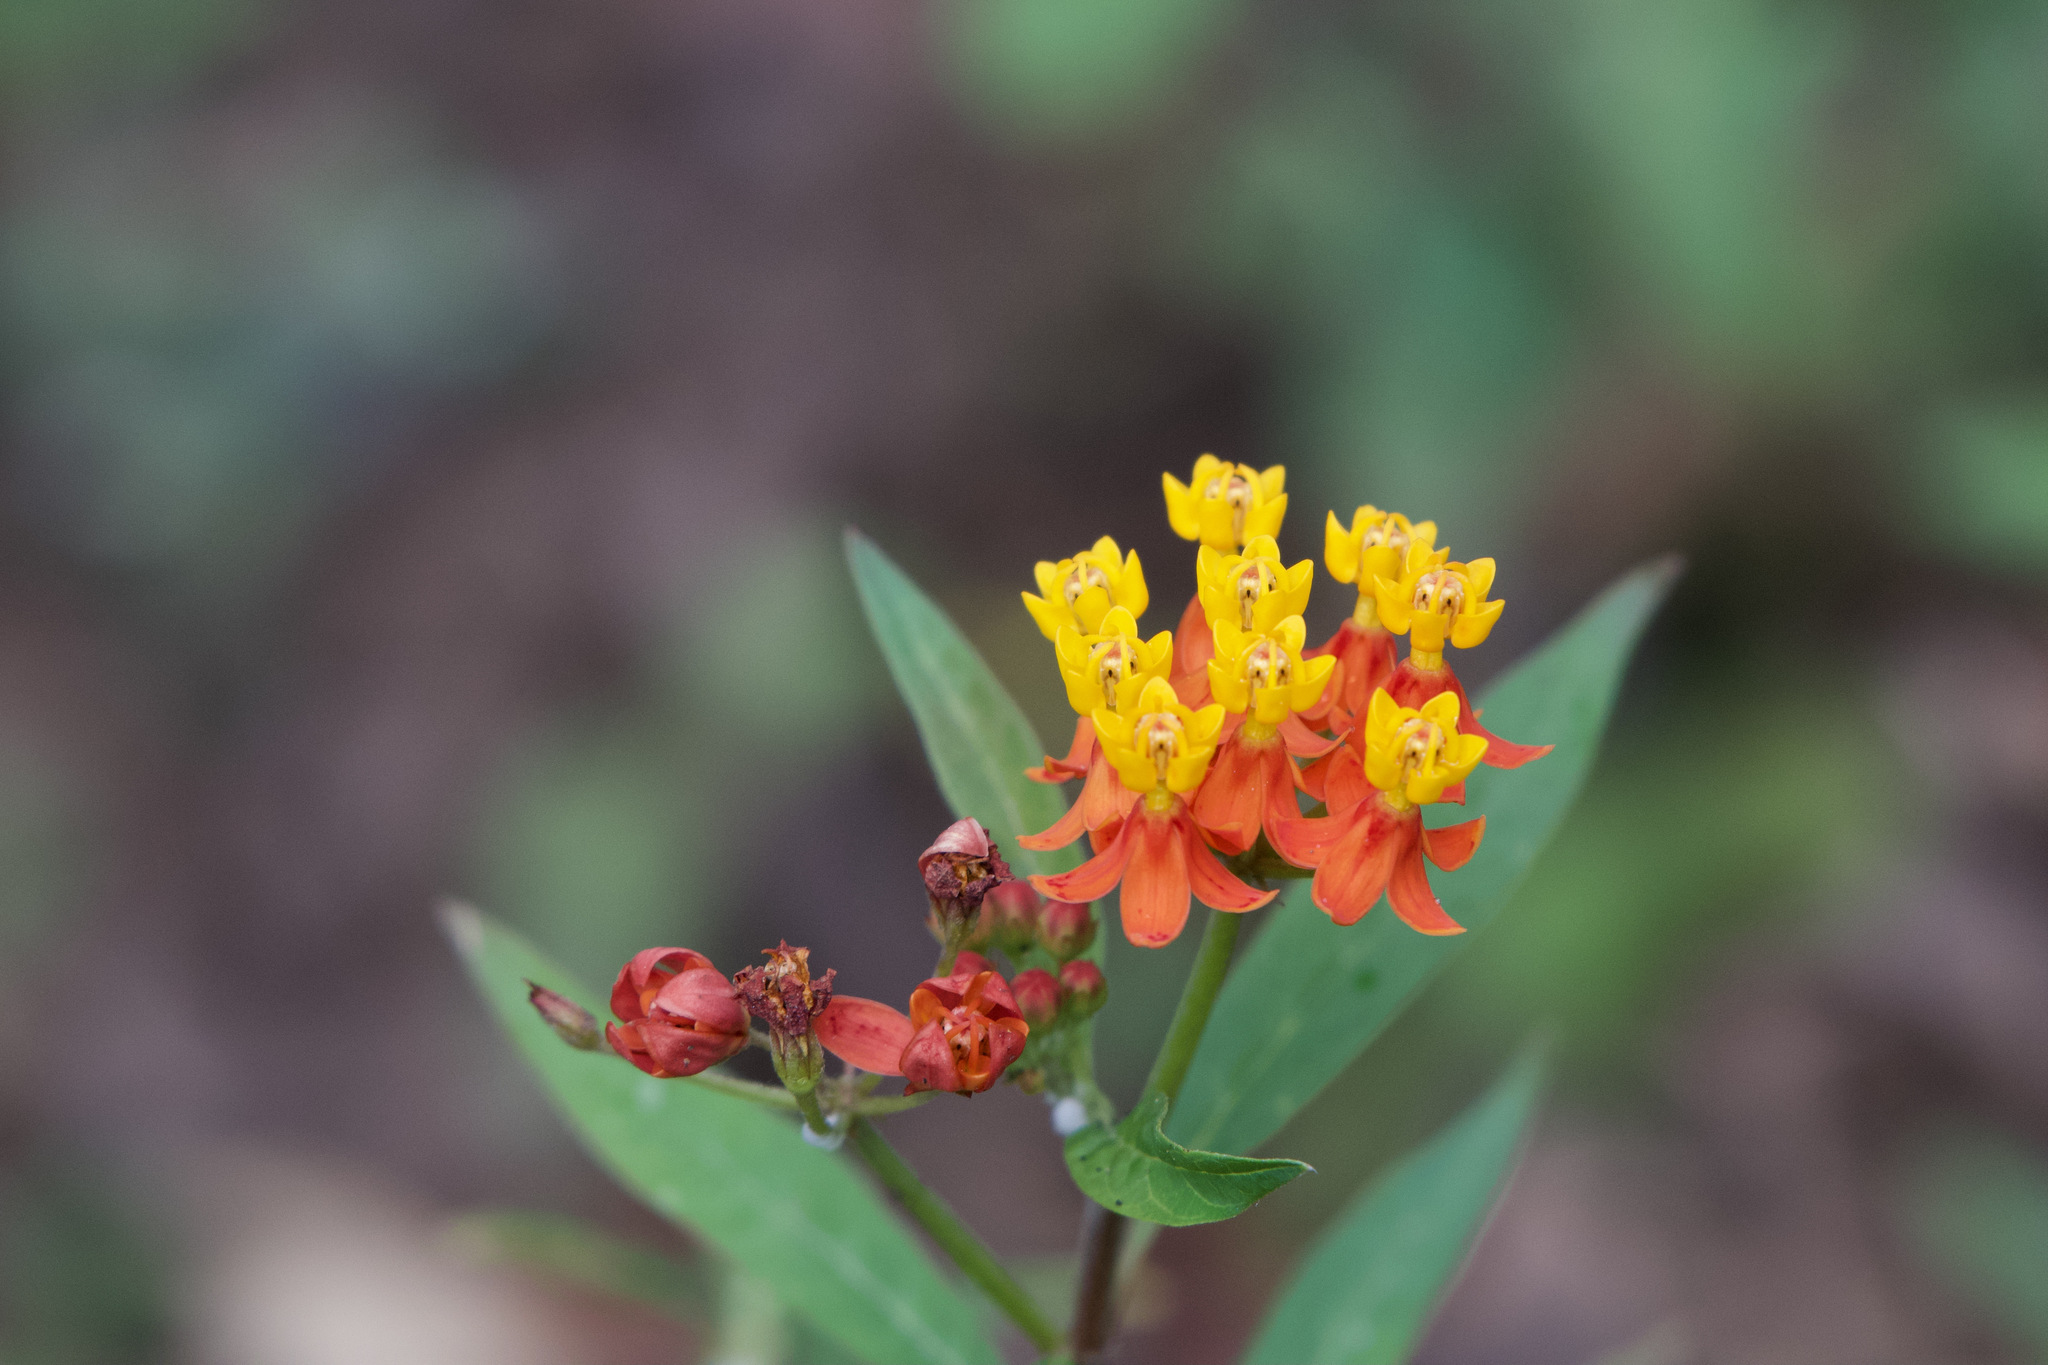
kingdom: Plantae
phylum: Tracheophyta
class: Magnoliopsida
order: Gentianales
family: Apocynaceae
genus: Asclepias
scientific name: Asclepias curassavica
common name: Bloodflower
